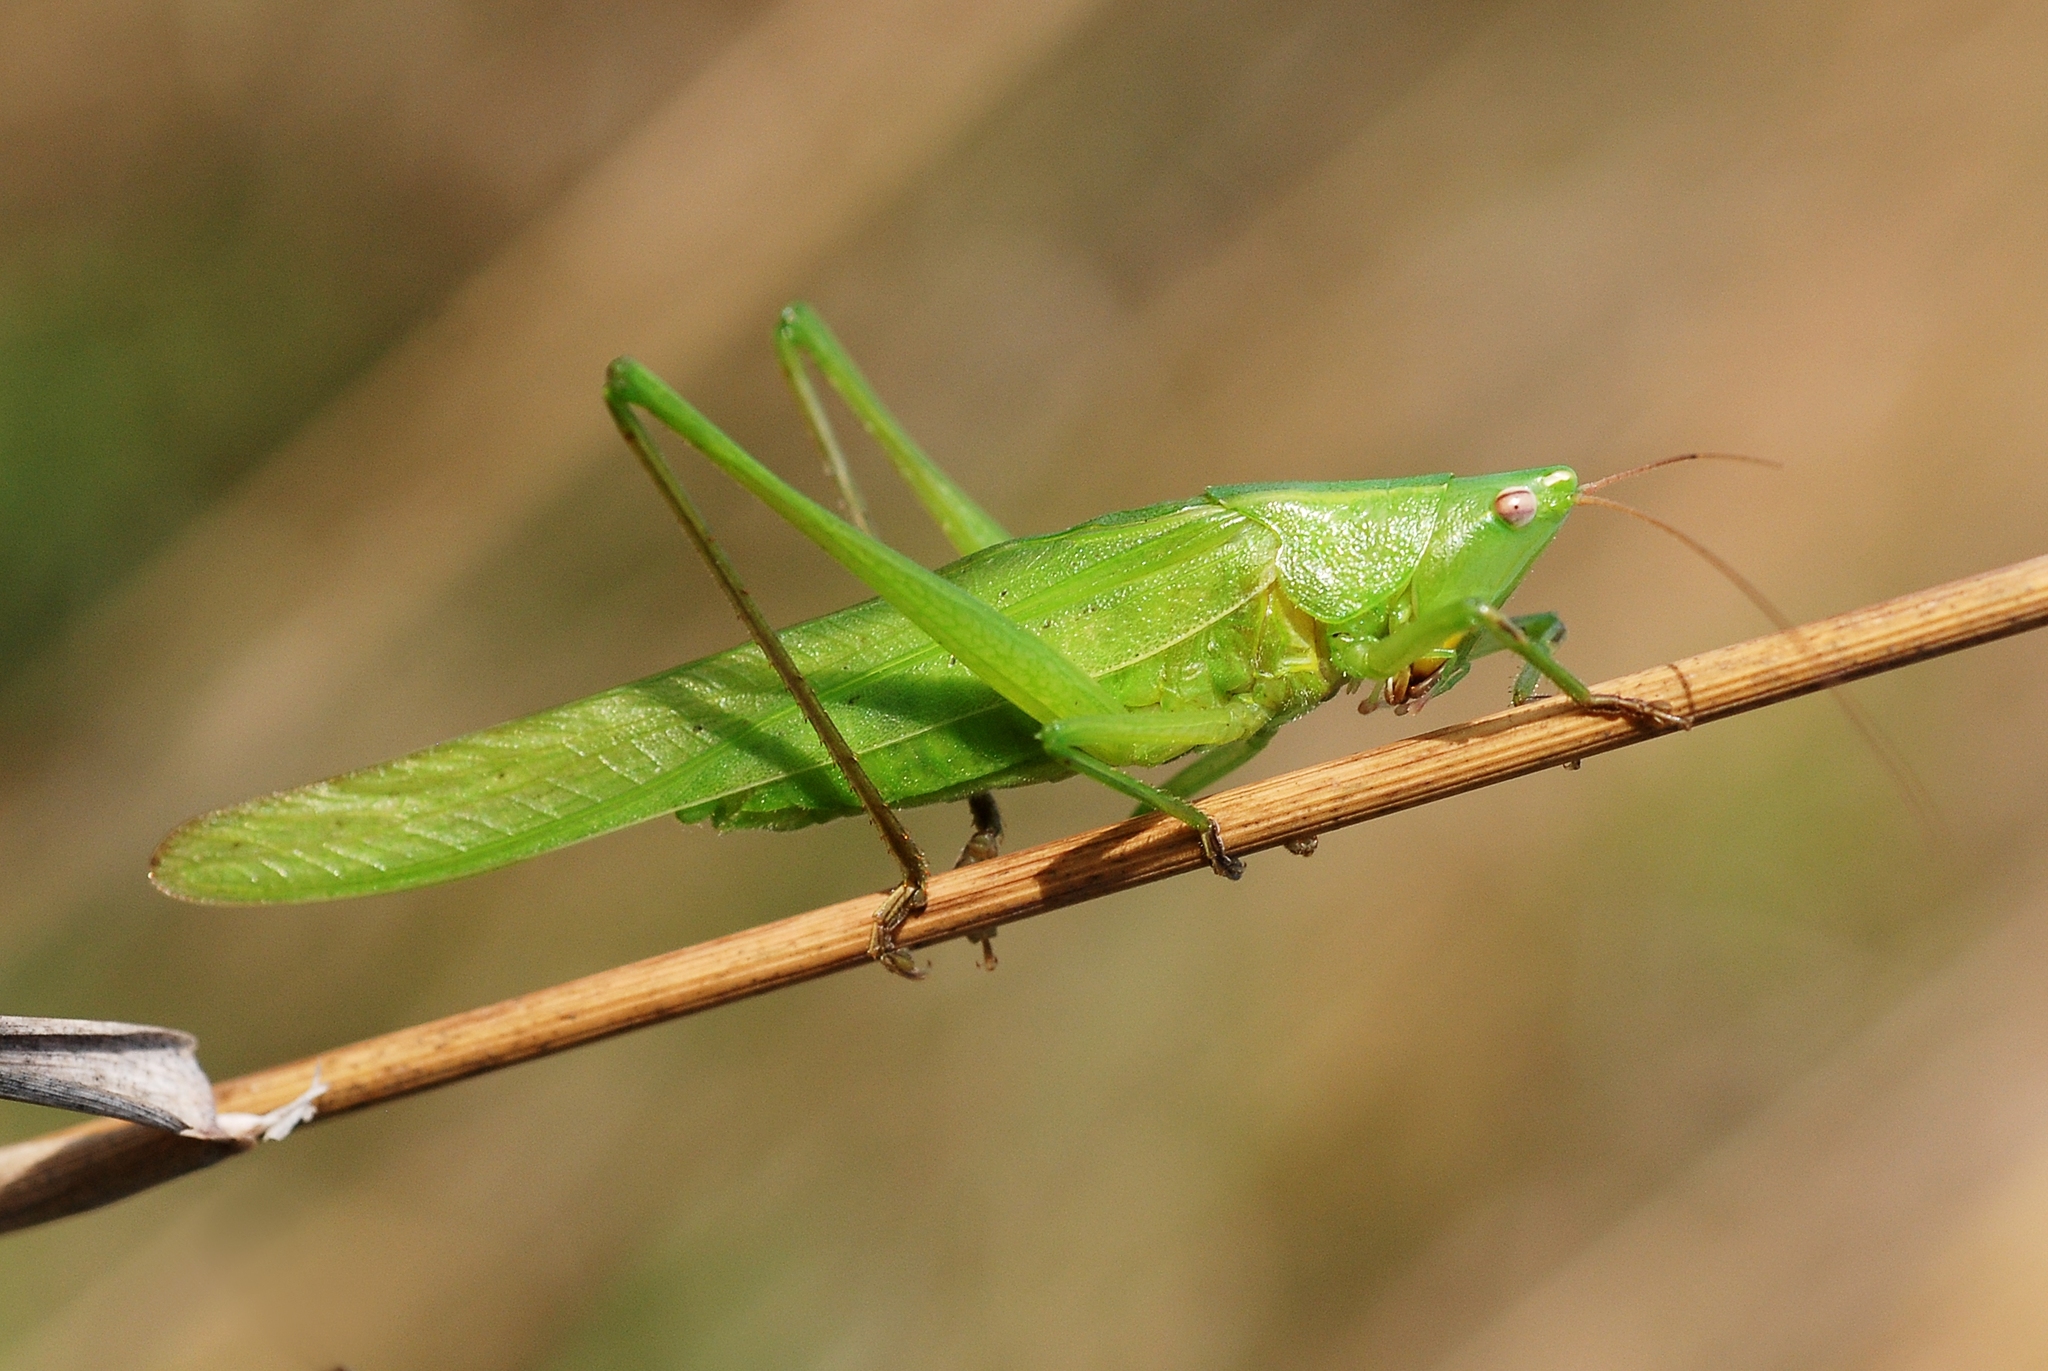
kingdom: Animalia
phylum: Arthropoda
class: Insecta
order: Orthoptera
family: Tettigoniidae
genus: Ruspolia
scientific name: Ruspolia nitidula
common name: Large conehead
